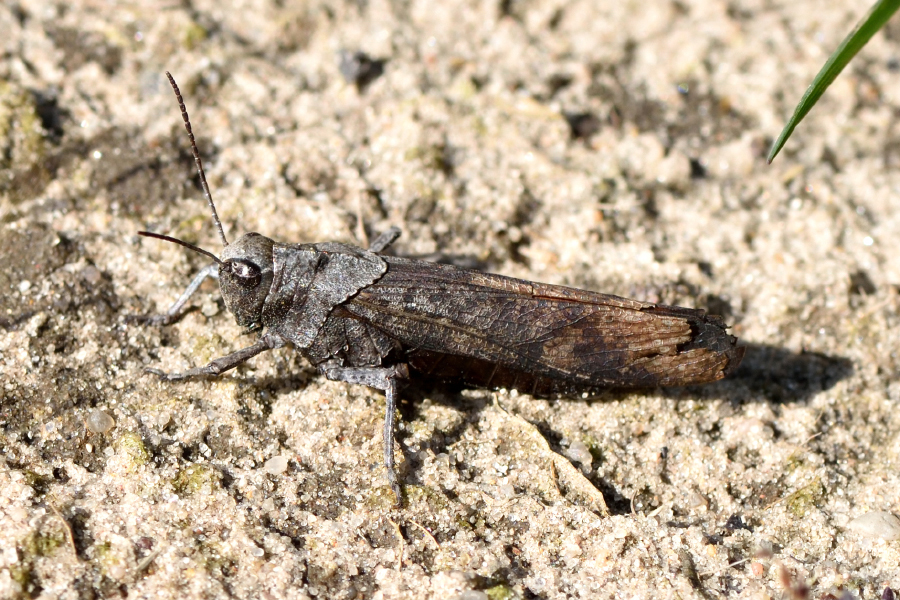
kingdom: Animalia
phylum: Arthropoda
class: Insecta
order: Orthoptera
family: Acrididae
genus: Psophus
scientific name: Psophus stridulus
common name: Rattle grasshopper
